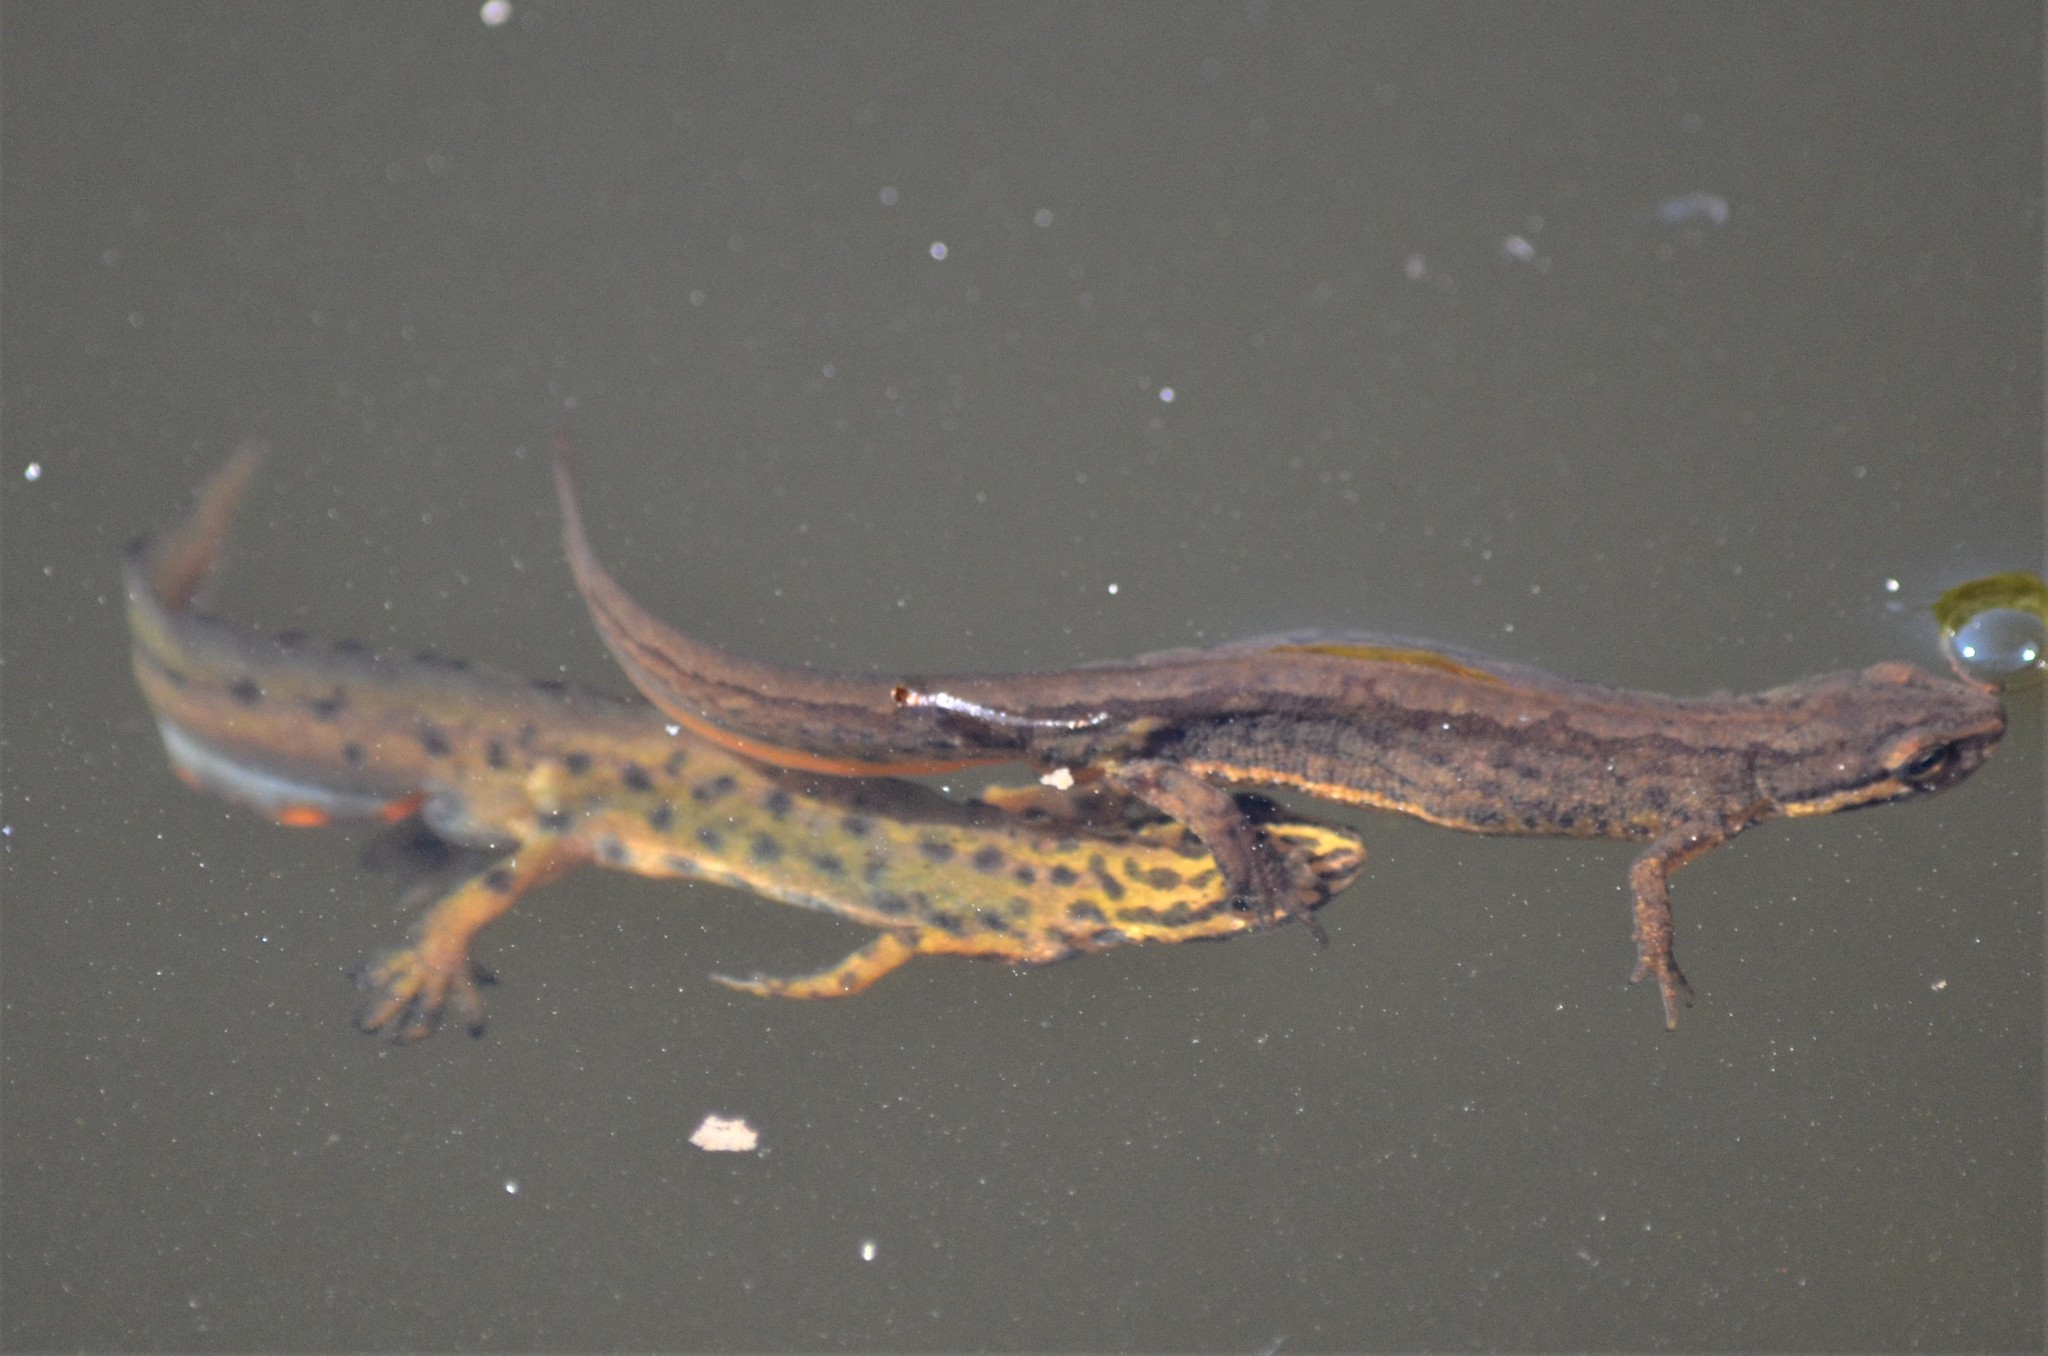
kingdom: Animalia
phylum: Chordata
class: Amphibia
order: Caudata
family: Salamandridae
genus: Lissotriton
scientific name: Lissotriton vulgaris
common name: Smooth newt
